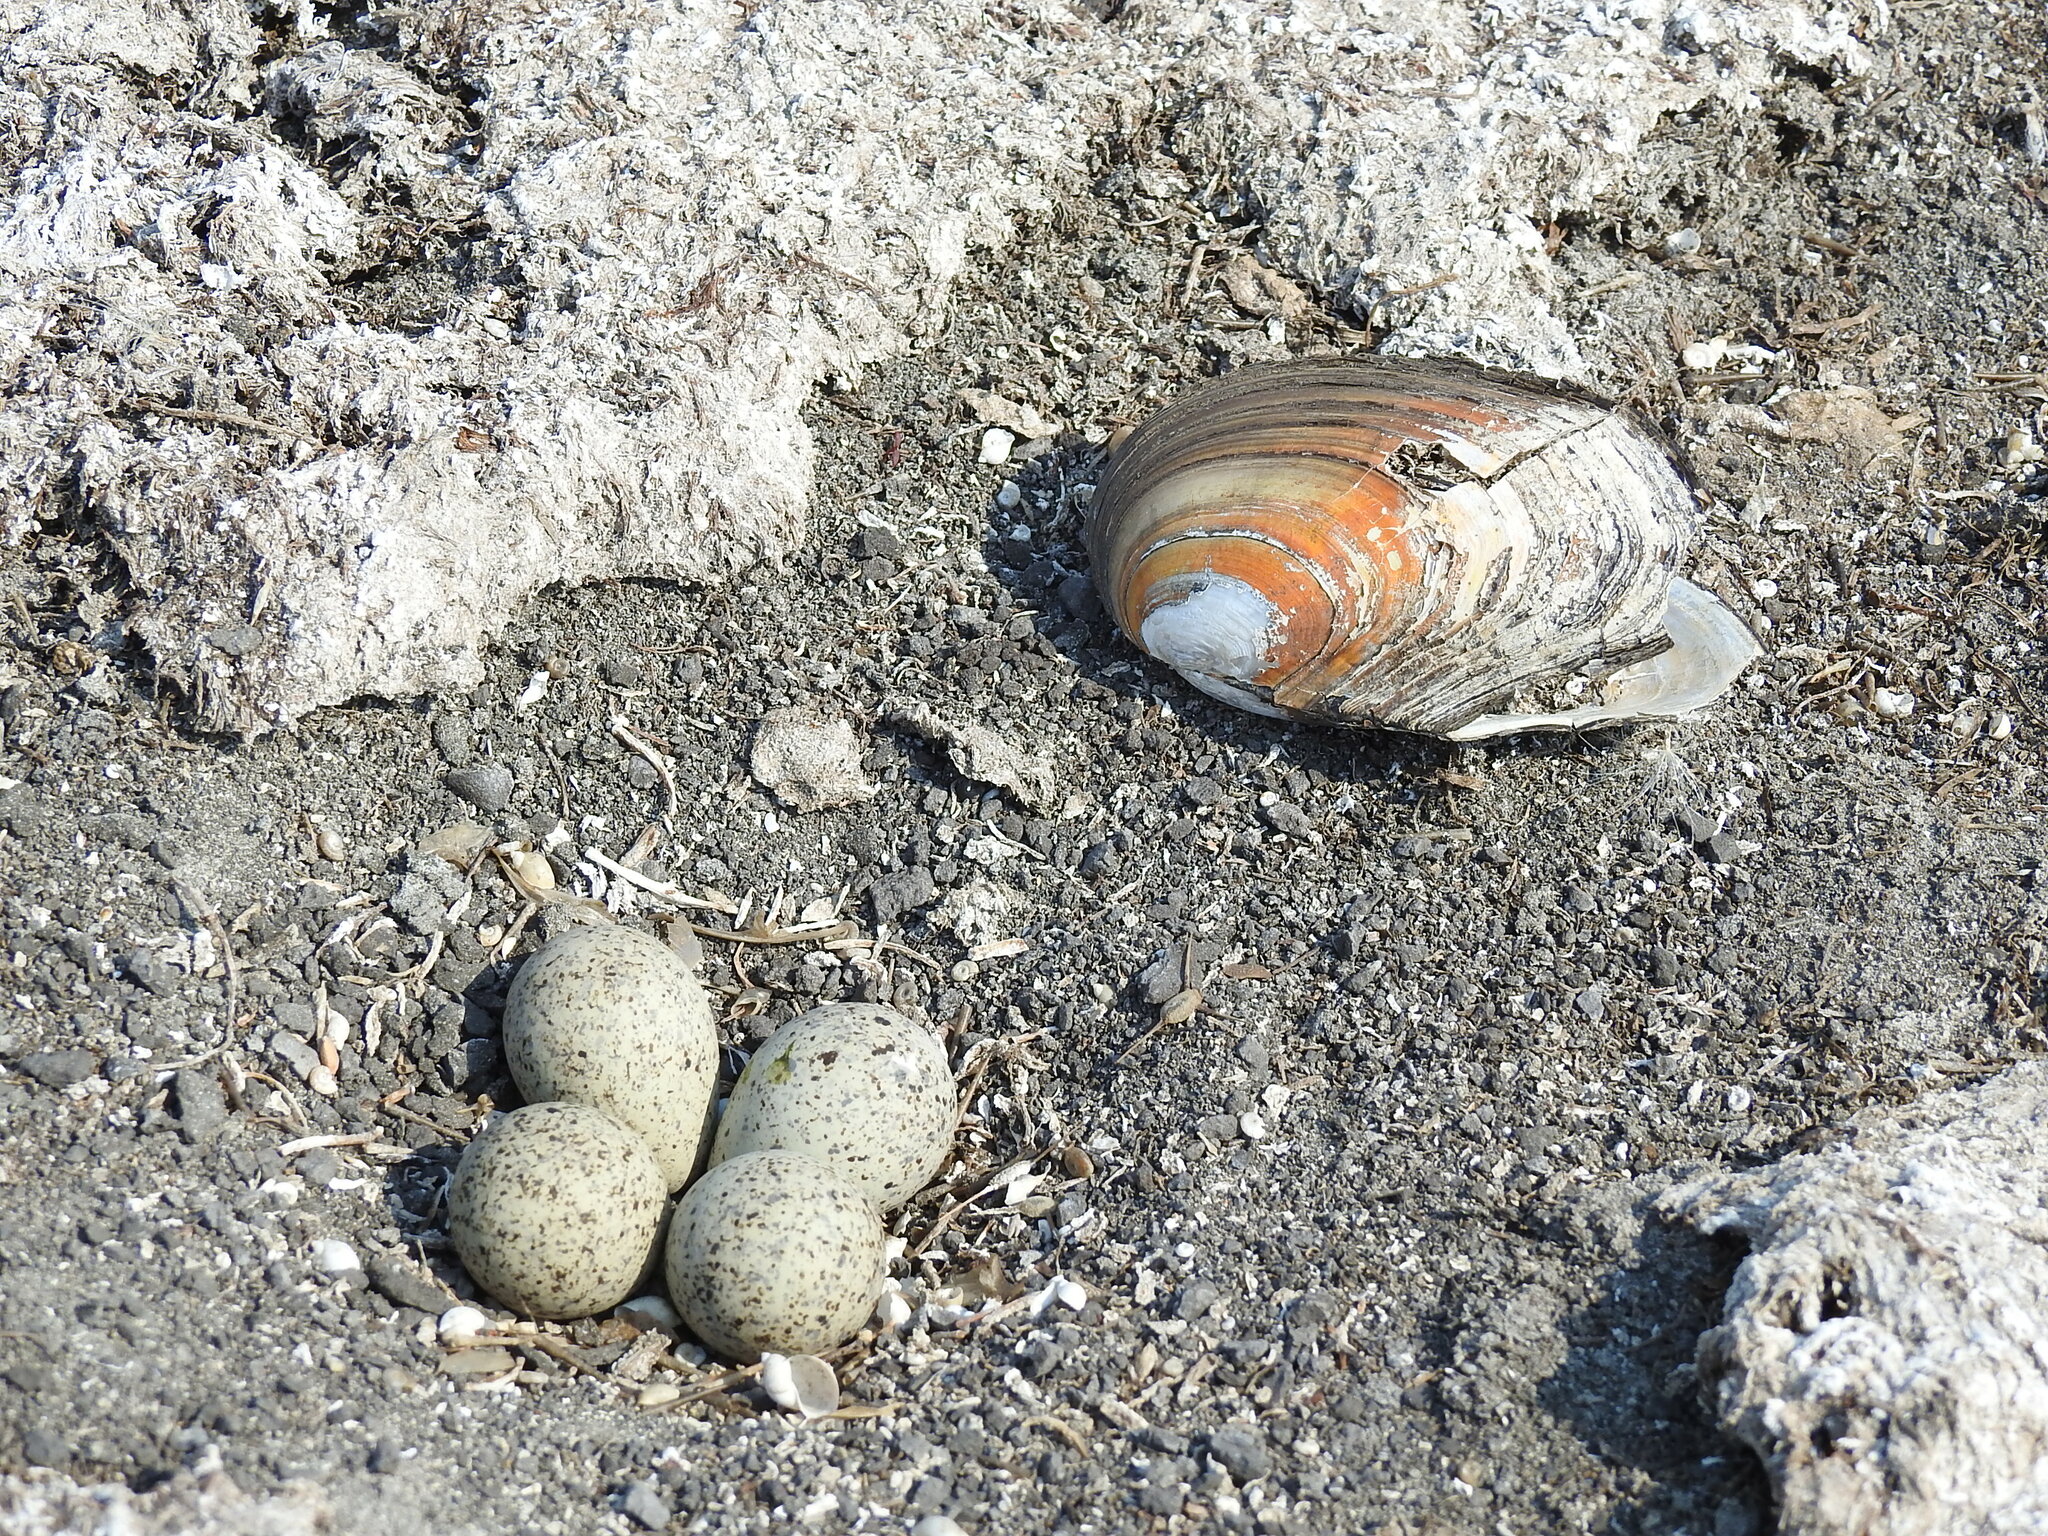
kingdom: Animalia
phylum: Chordata
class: Aves
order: Charadriiformes
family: Charadriidae
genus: Charadrius
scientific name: Charadrius dubius
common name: Little ringed plover
